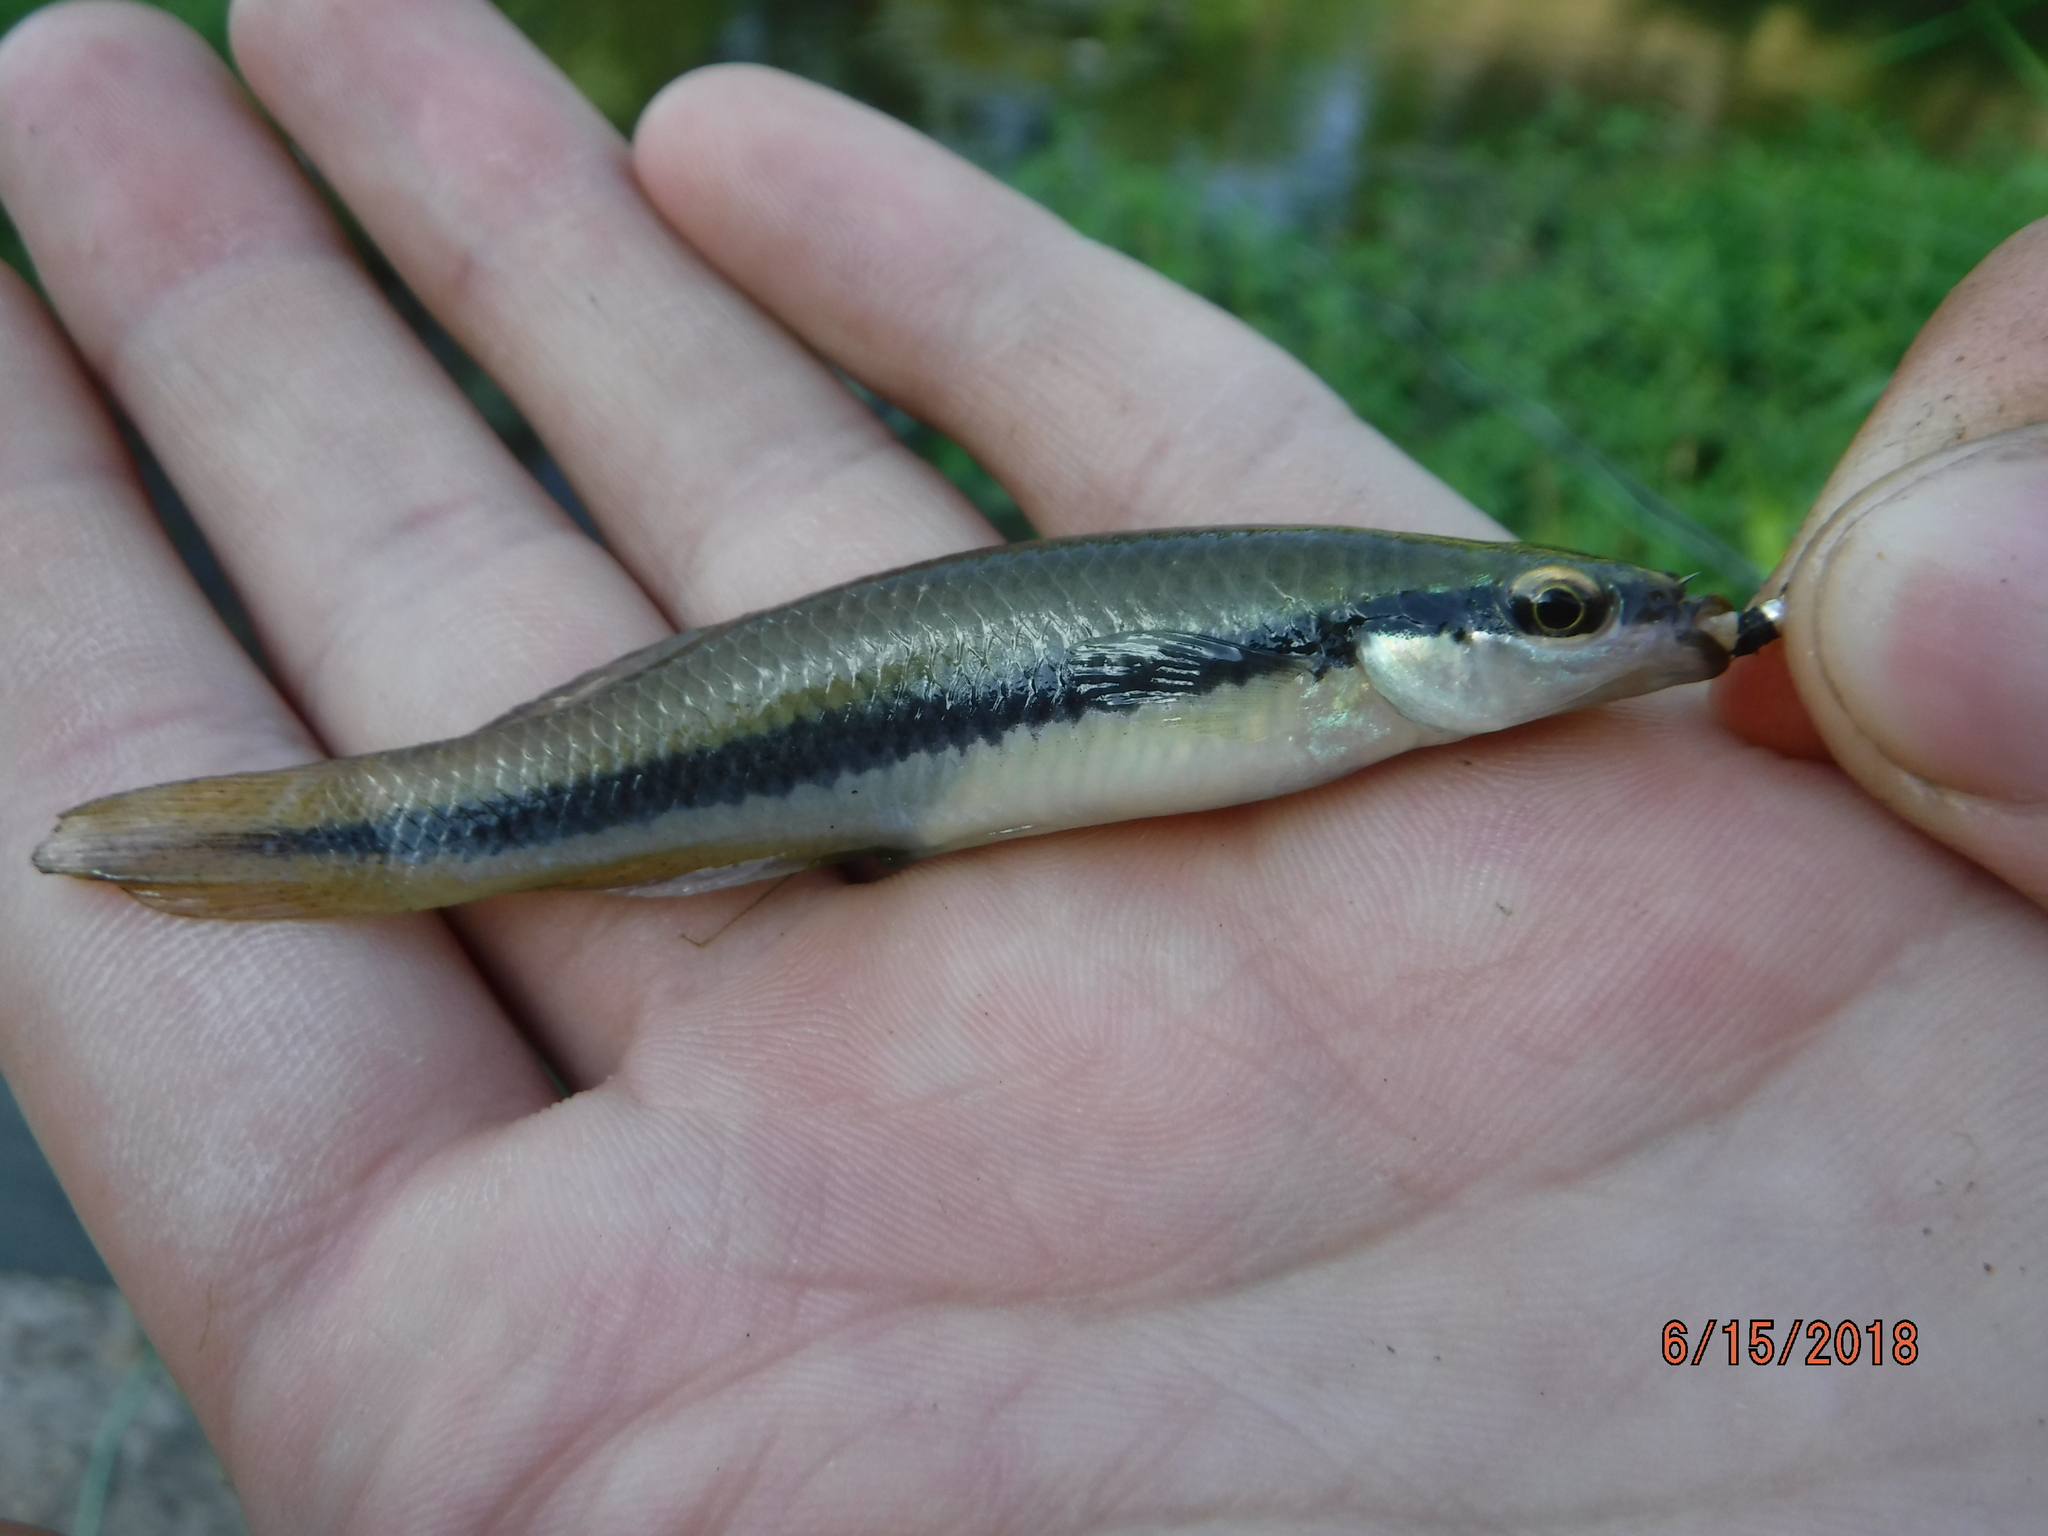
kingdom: Animalia
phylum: Chordata
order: Cyprinodontiformes
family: Fundulidae
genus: Fundulus
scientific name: Fundulus notatus
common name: Blackstripe topminnow
